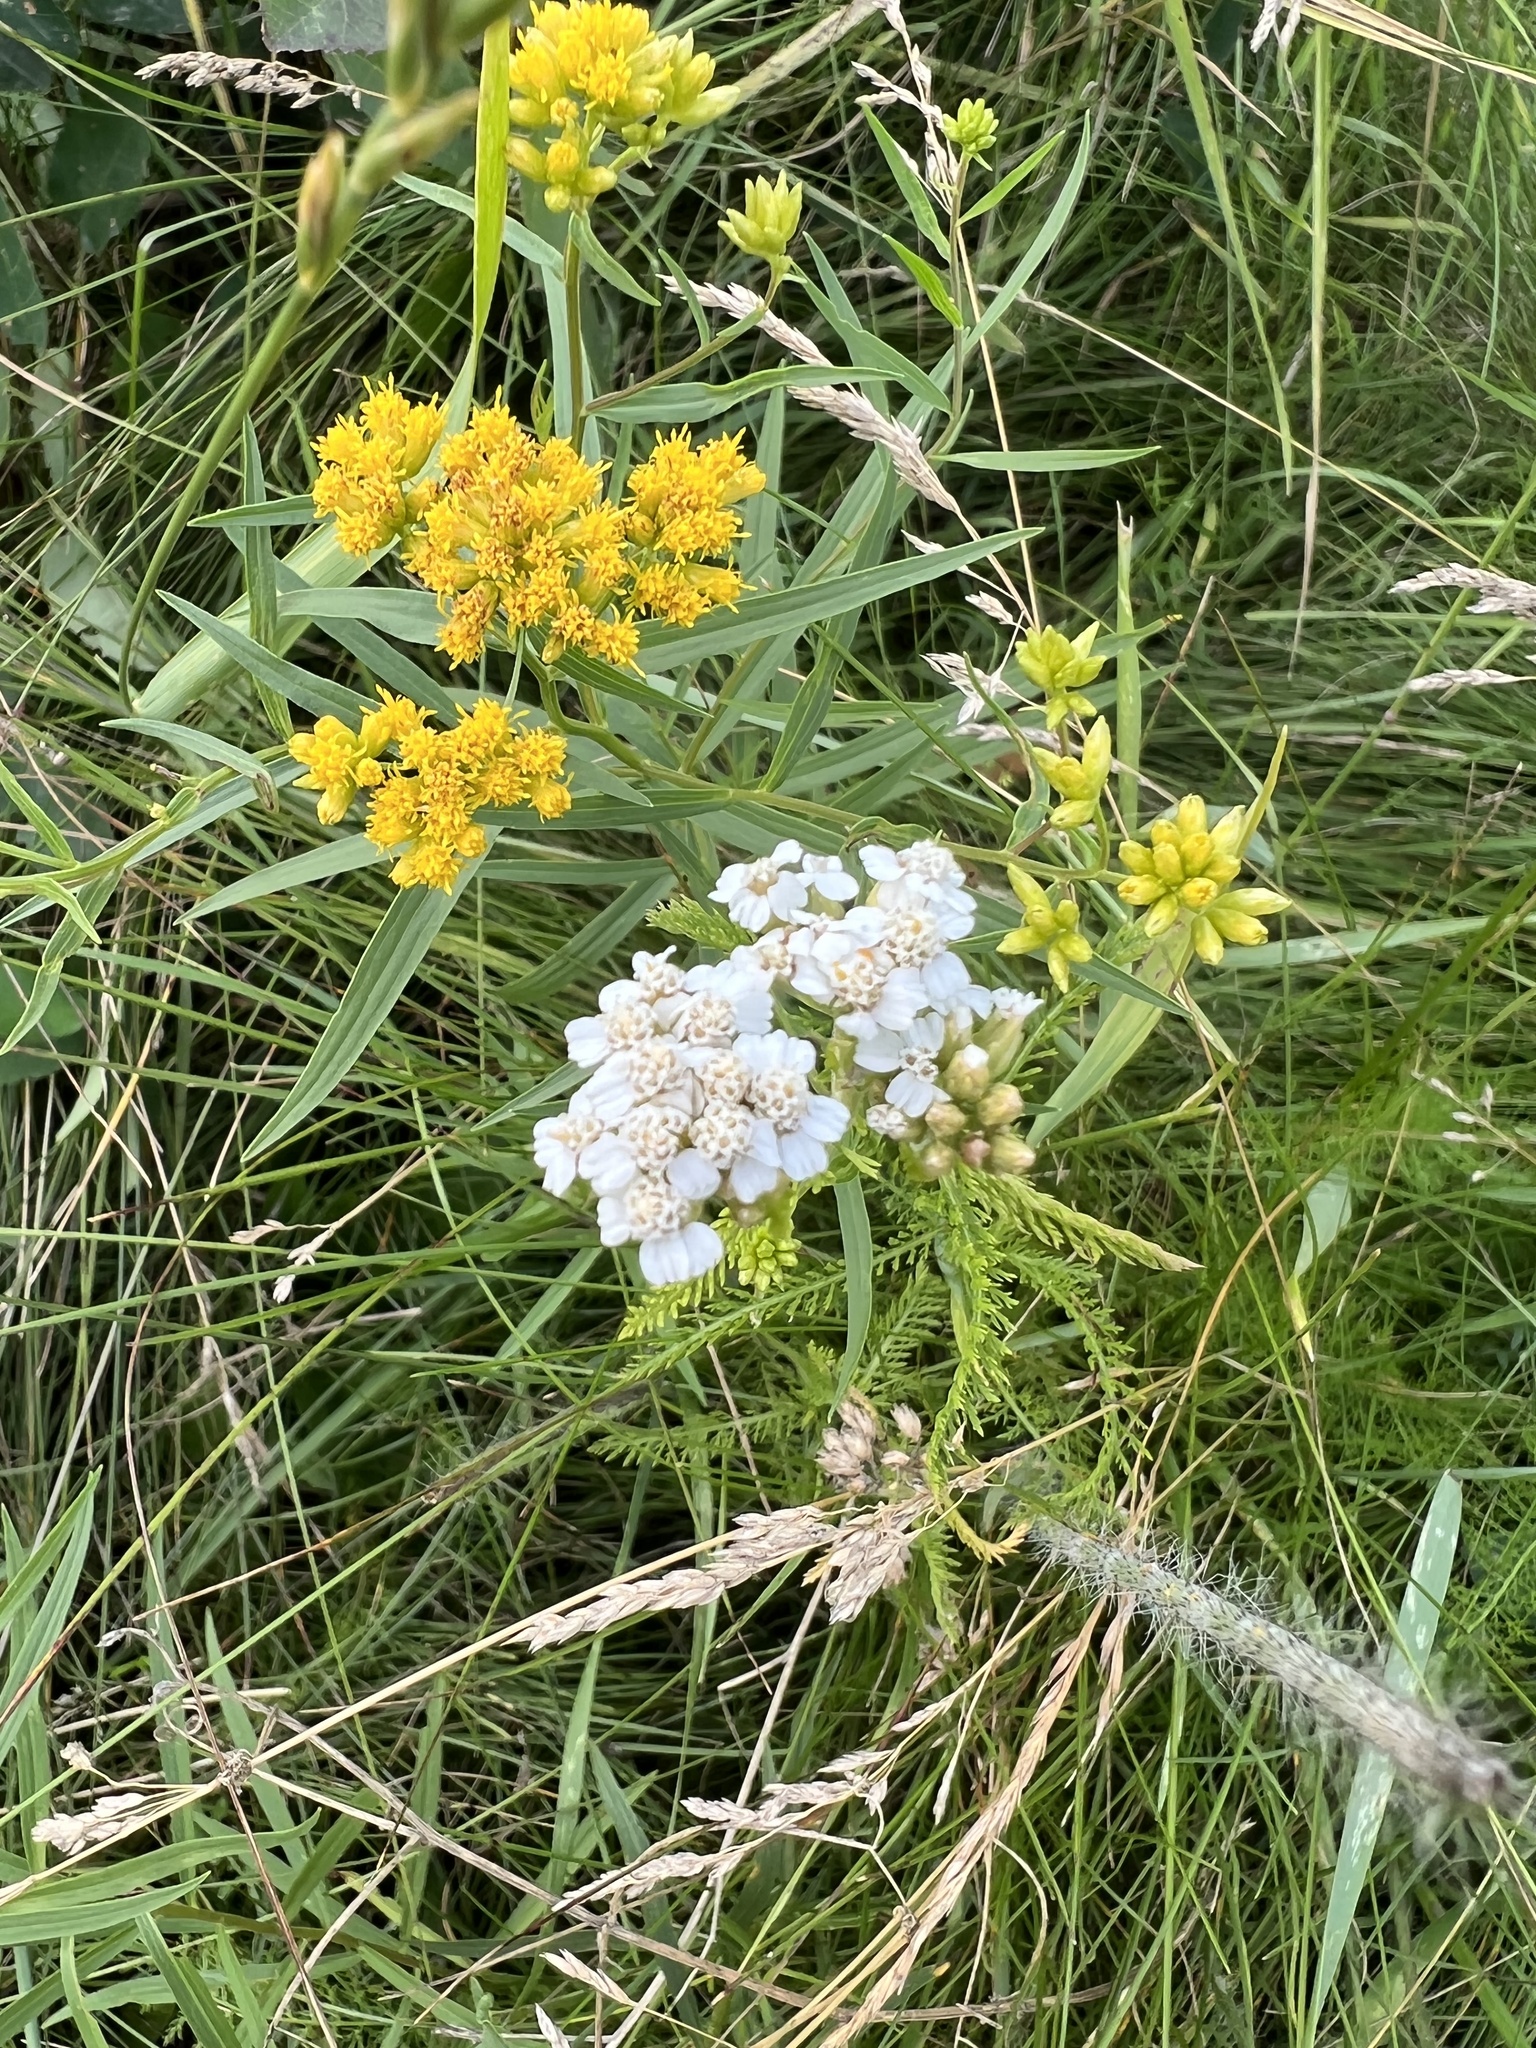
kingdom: Plantae
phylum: Tracheophyta
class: Magnoliopsida
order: Asterales
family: Asteraceae
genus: Achillea
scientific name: Achillea millefolium
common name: Yarrow
